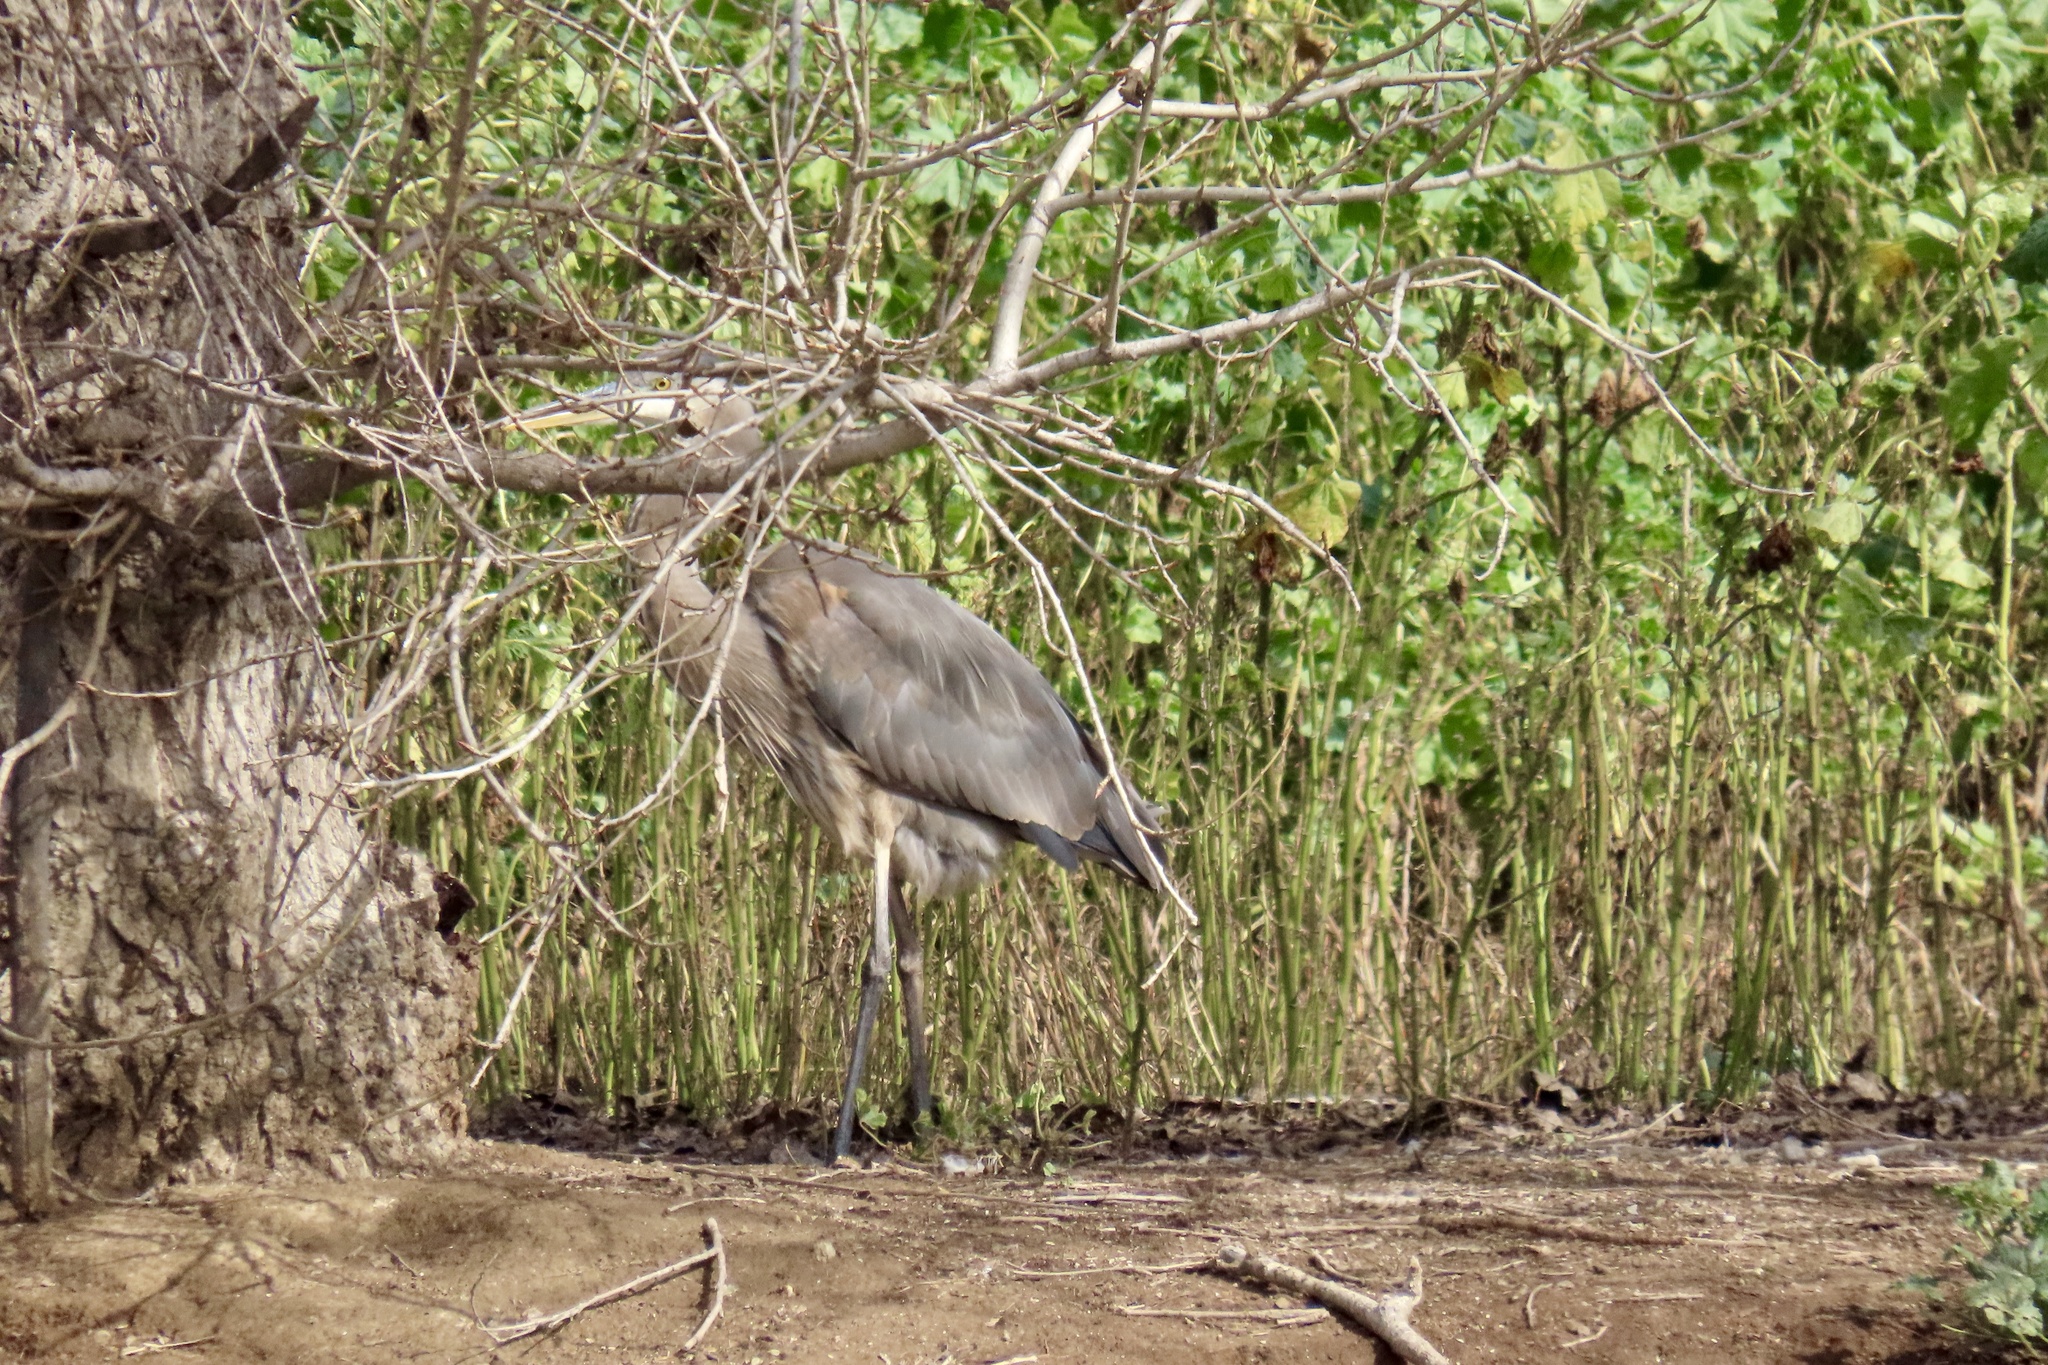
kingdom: Animalia
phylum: Chordata
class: Aves
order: Pelecaniformes
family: Ardeidae
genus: Ardea
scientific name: Ardea herodias
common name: Great blue heron
